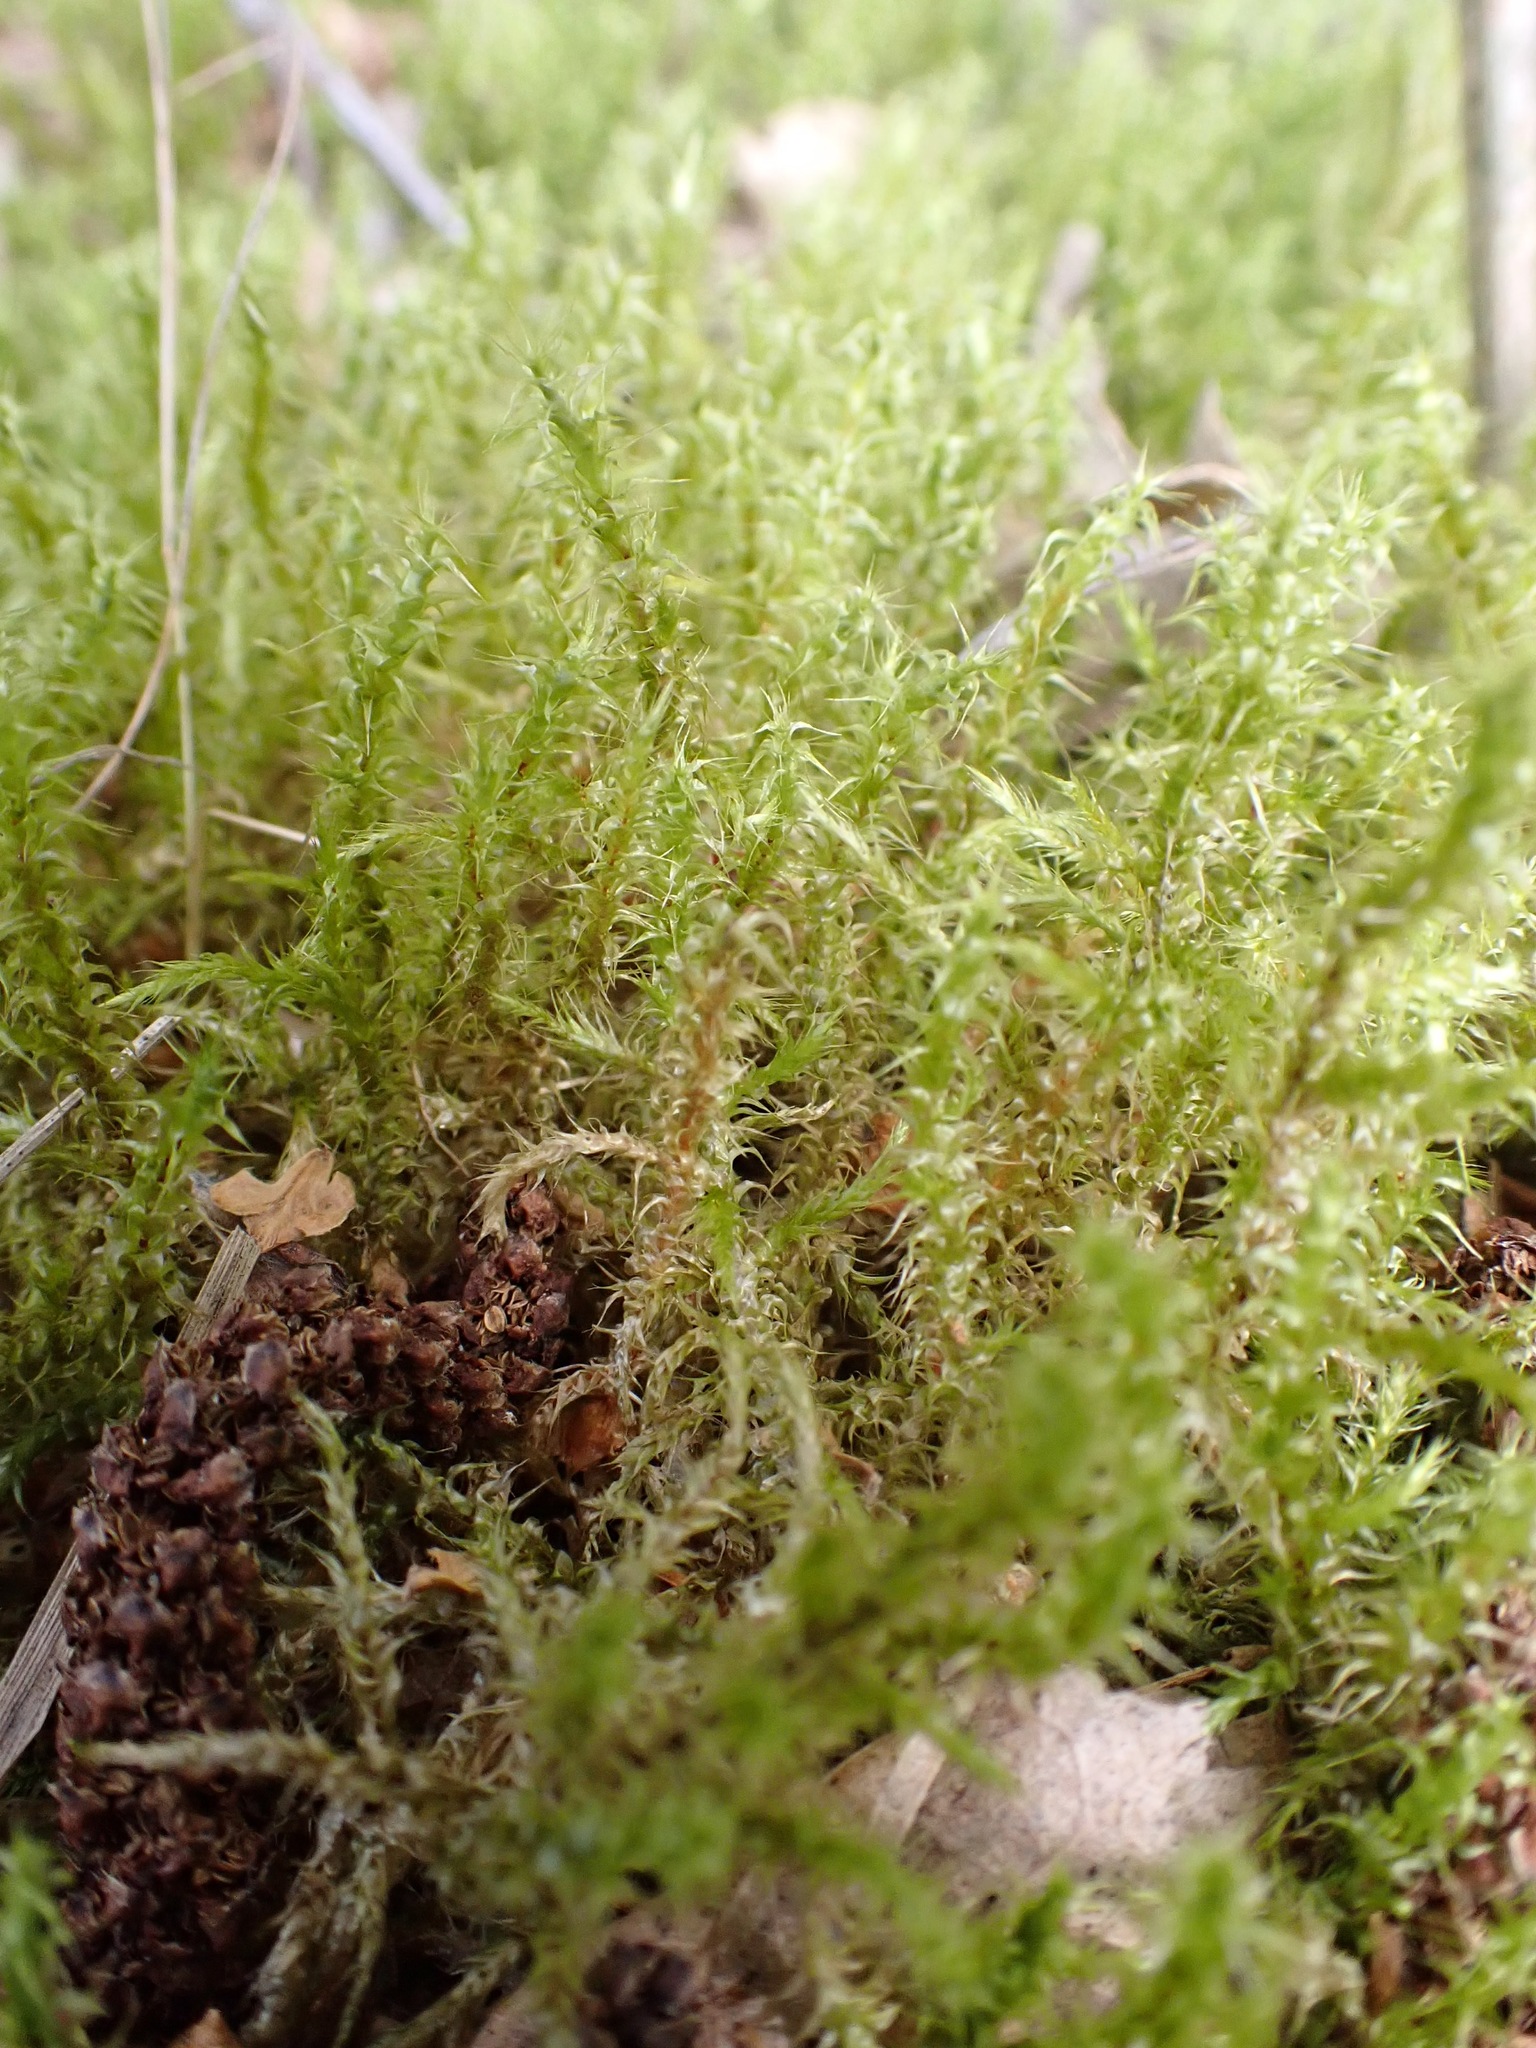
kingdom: Plantae
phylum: Bryophyta
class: Bryopsida
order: Hypnales
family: Hylocomiaceae
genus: Rhytidiadelphus
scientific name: Rhytidiadelphus squarrosus
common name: Springy turf-moss
